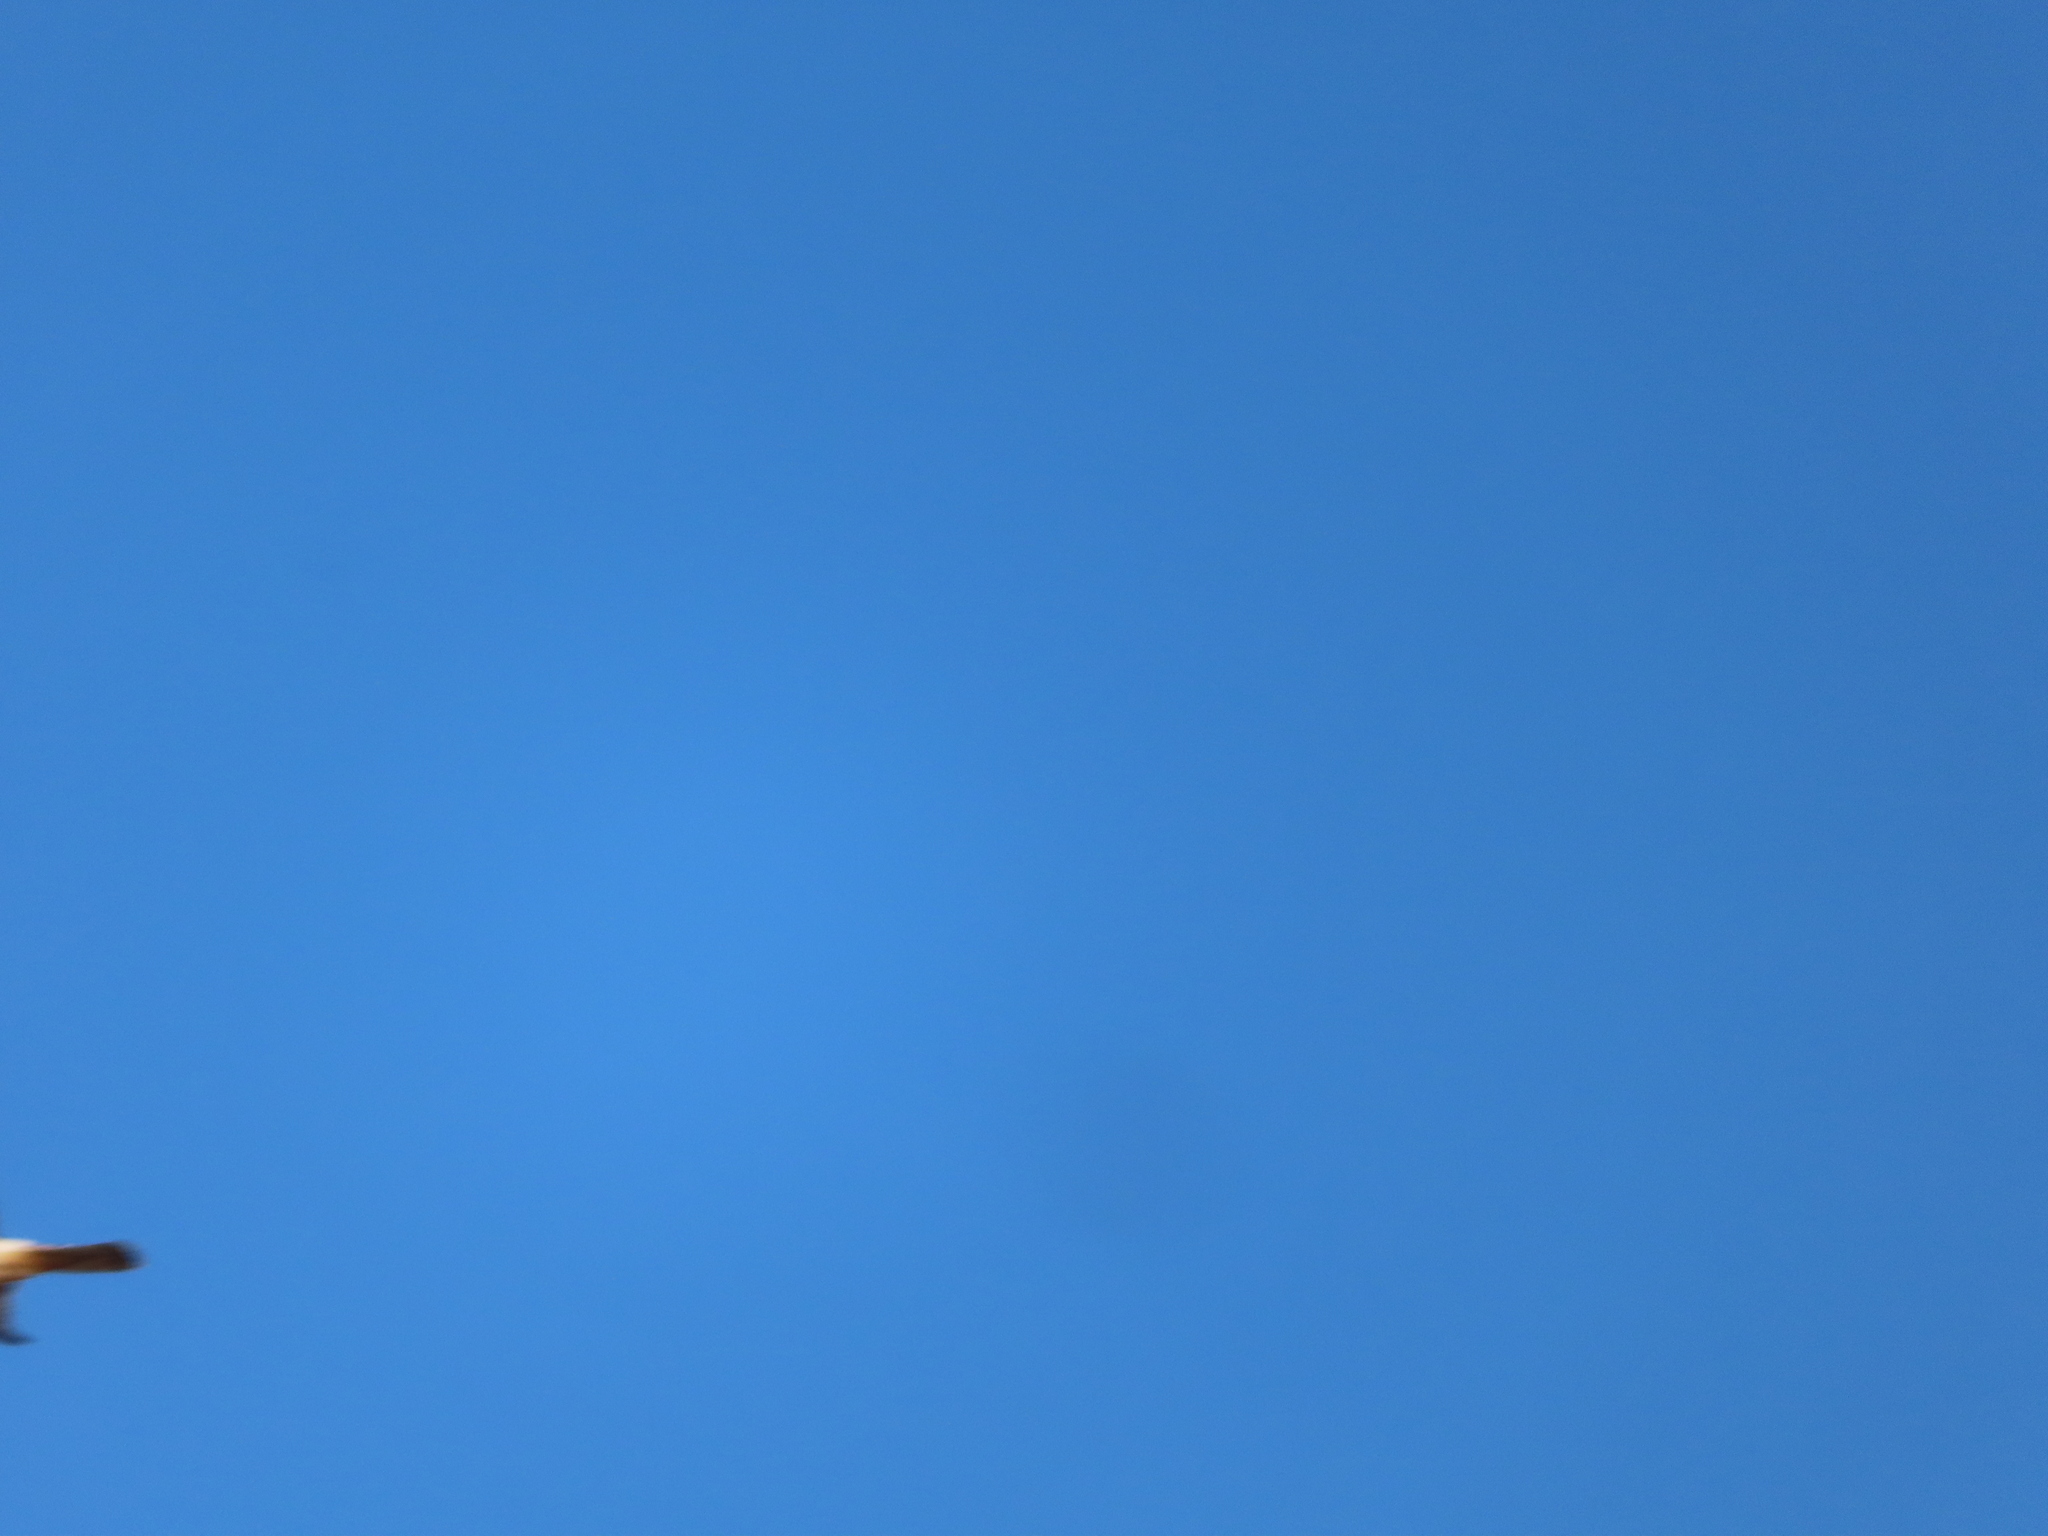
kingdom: Animalia
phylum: Chordata
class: Aves
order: Accipitriformes
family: Accipitridae
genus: Circus
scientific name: Circus cyaneus
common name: Hen harrier
